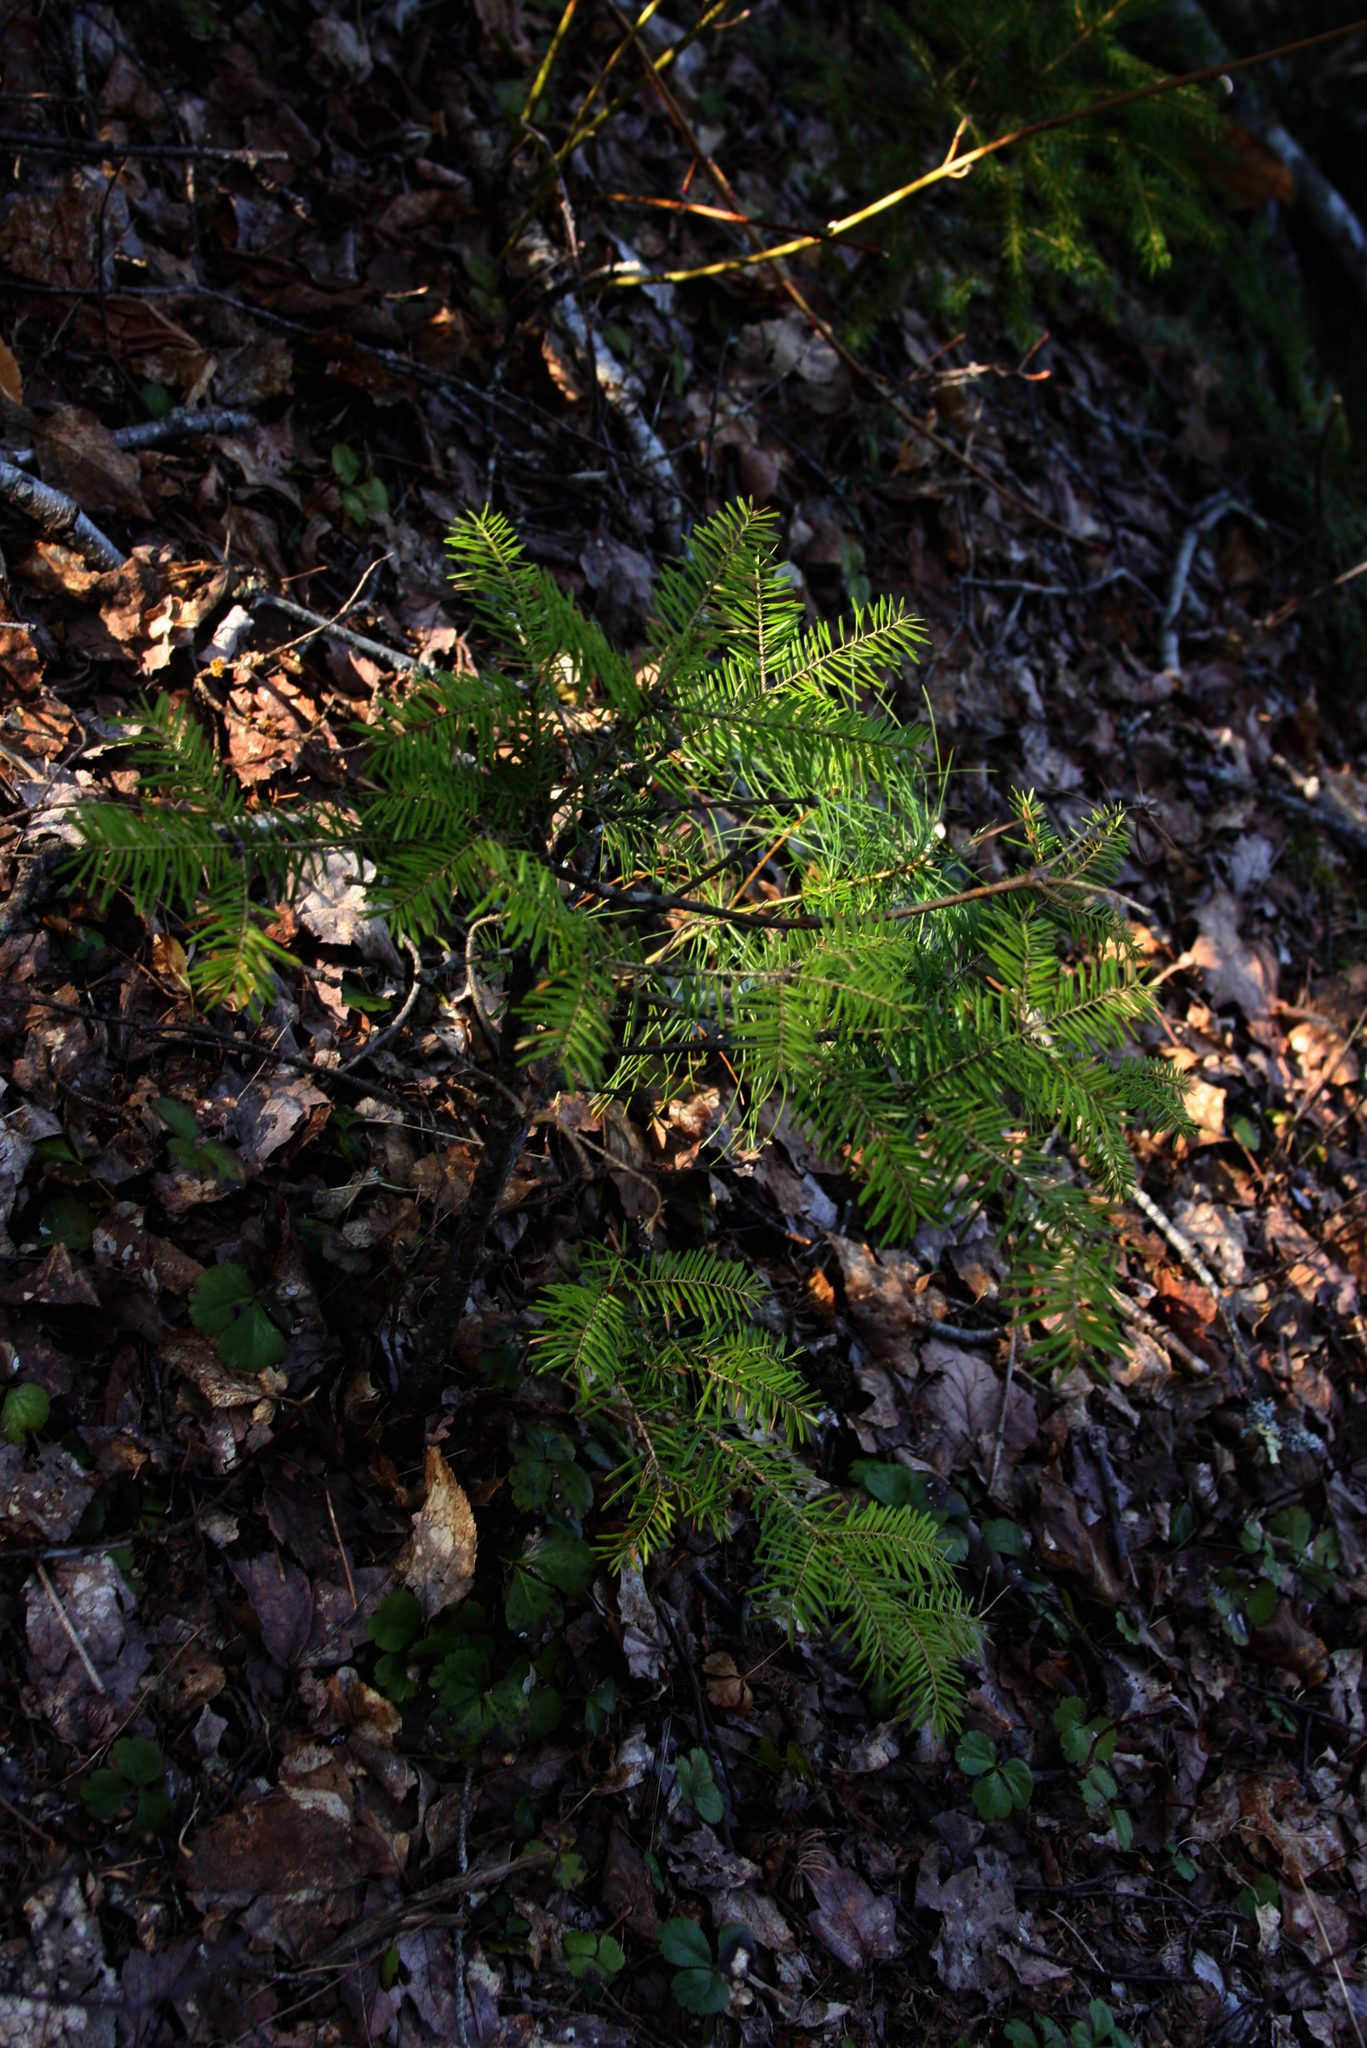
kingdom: Plantae
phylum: Tracheophyta
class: Pinopsida
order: Pinales
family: Pinaceae
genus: Abies
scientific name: Abies balsamea
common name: Balsam fir
